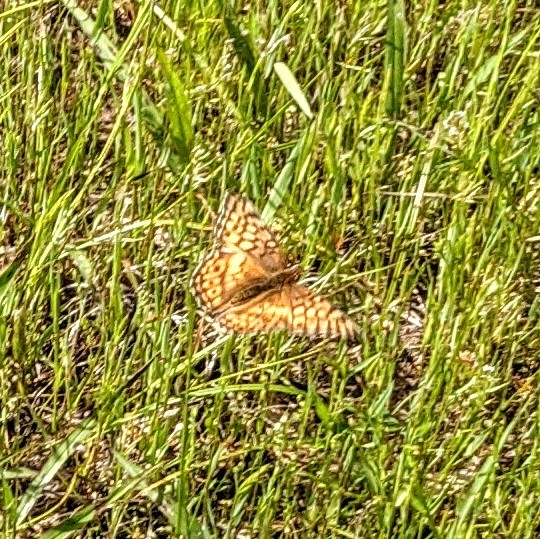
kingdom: Animalia
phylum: Arthropoda
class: Insecta
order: Lepidoptera
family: Nymphalidae
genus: Euptoieta
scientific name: Euptoieta claudia
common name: Variegated fritillary
